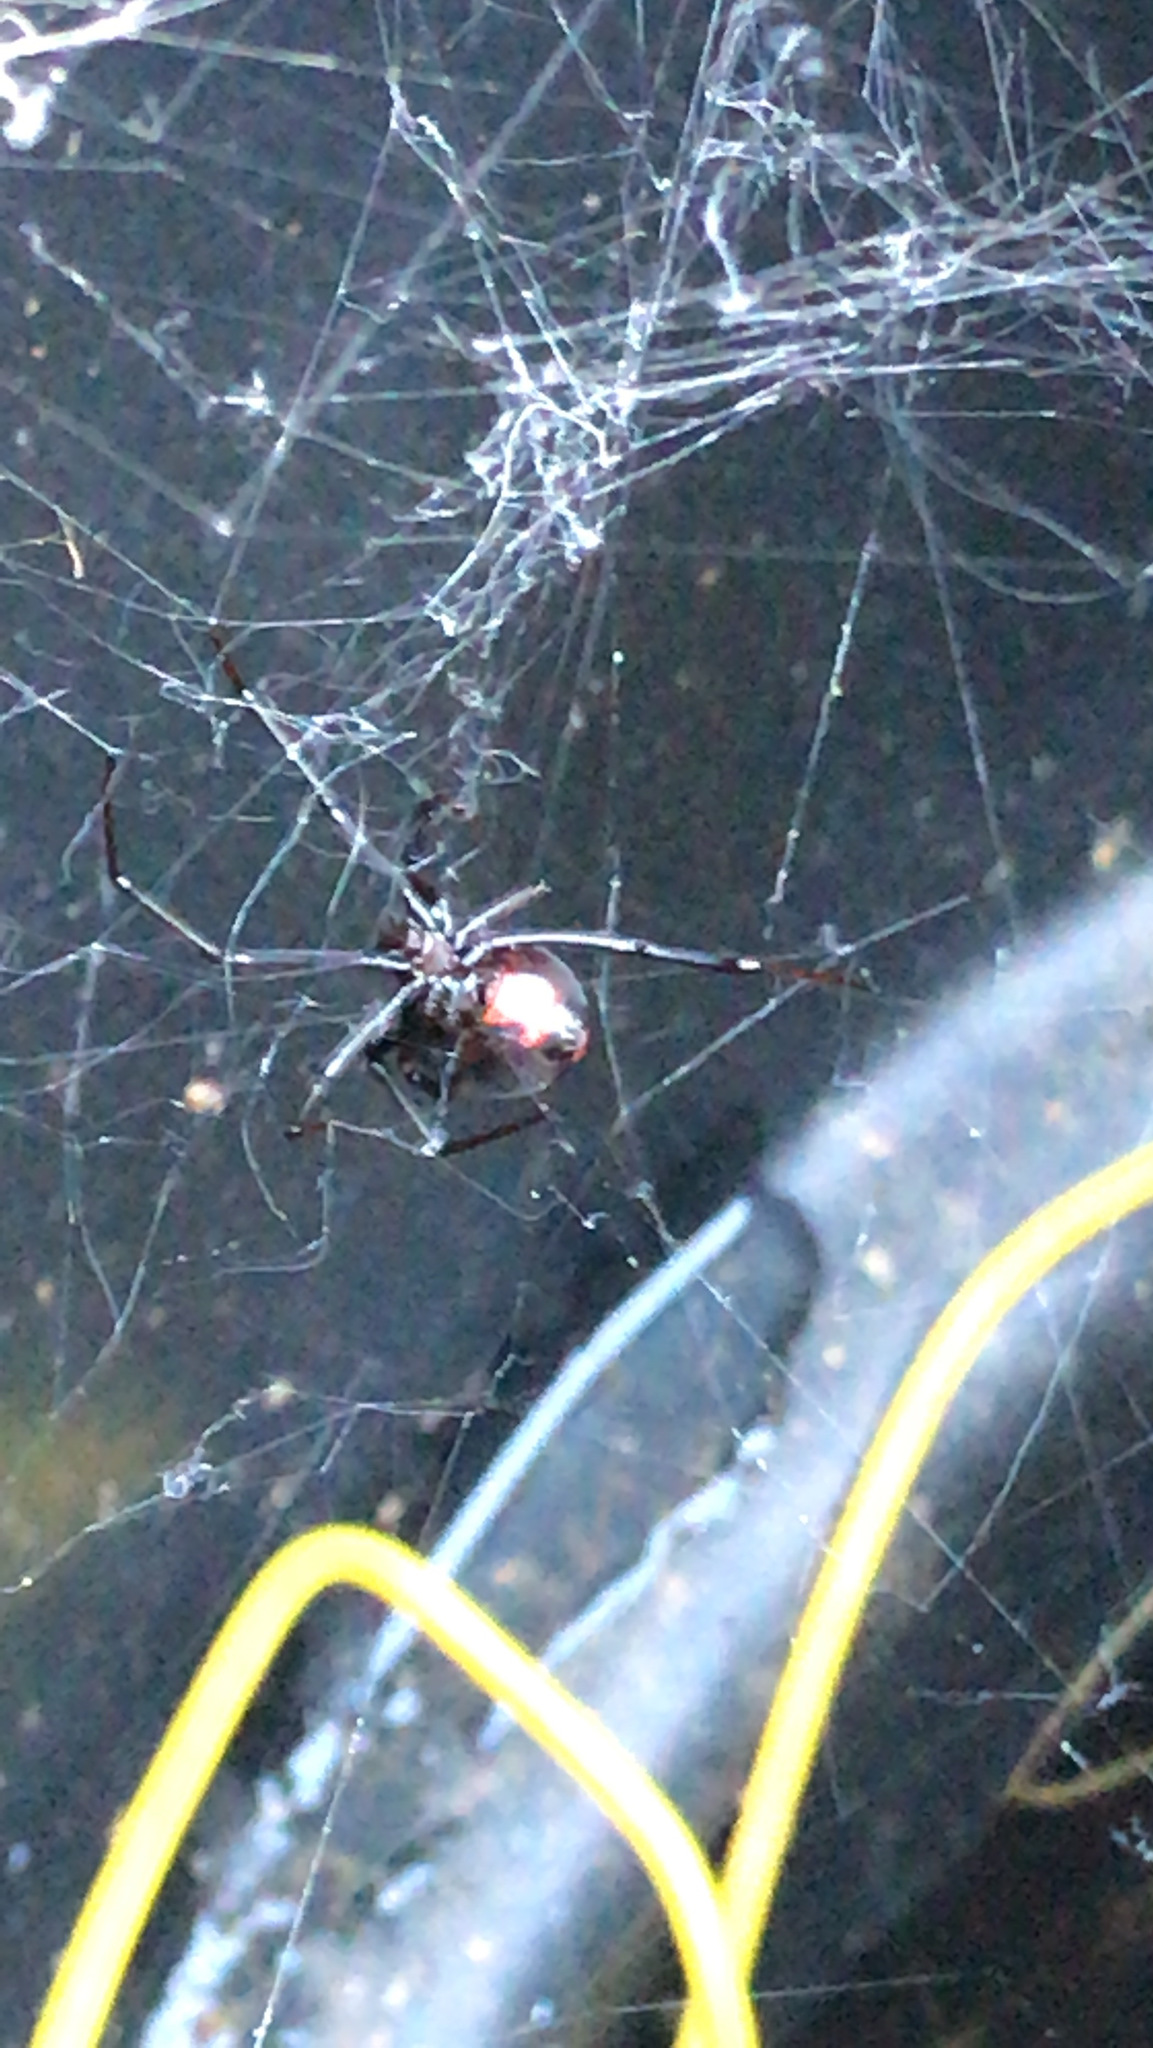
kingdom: Animalia
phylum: Arthropoda
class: Arachnida
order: Araneae
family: Theridiidae
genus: Latrodectus
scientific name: Latrodectus mactans
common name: Cobweb spiders
